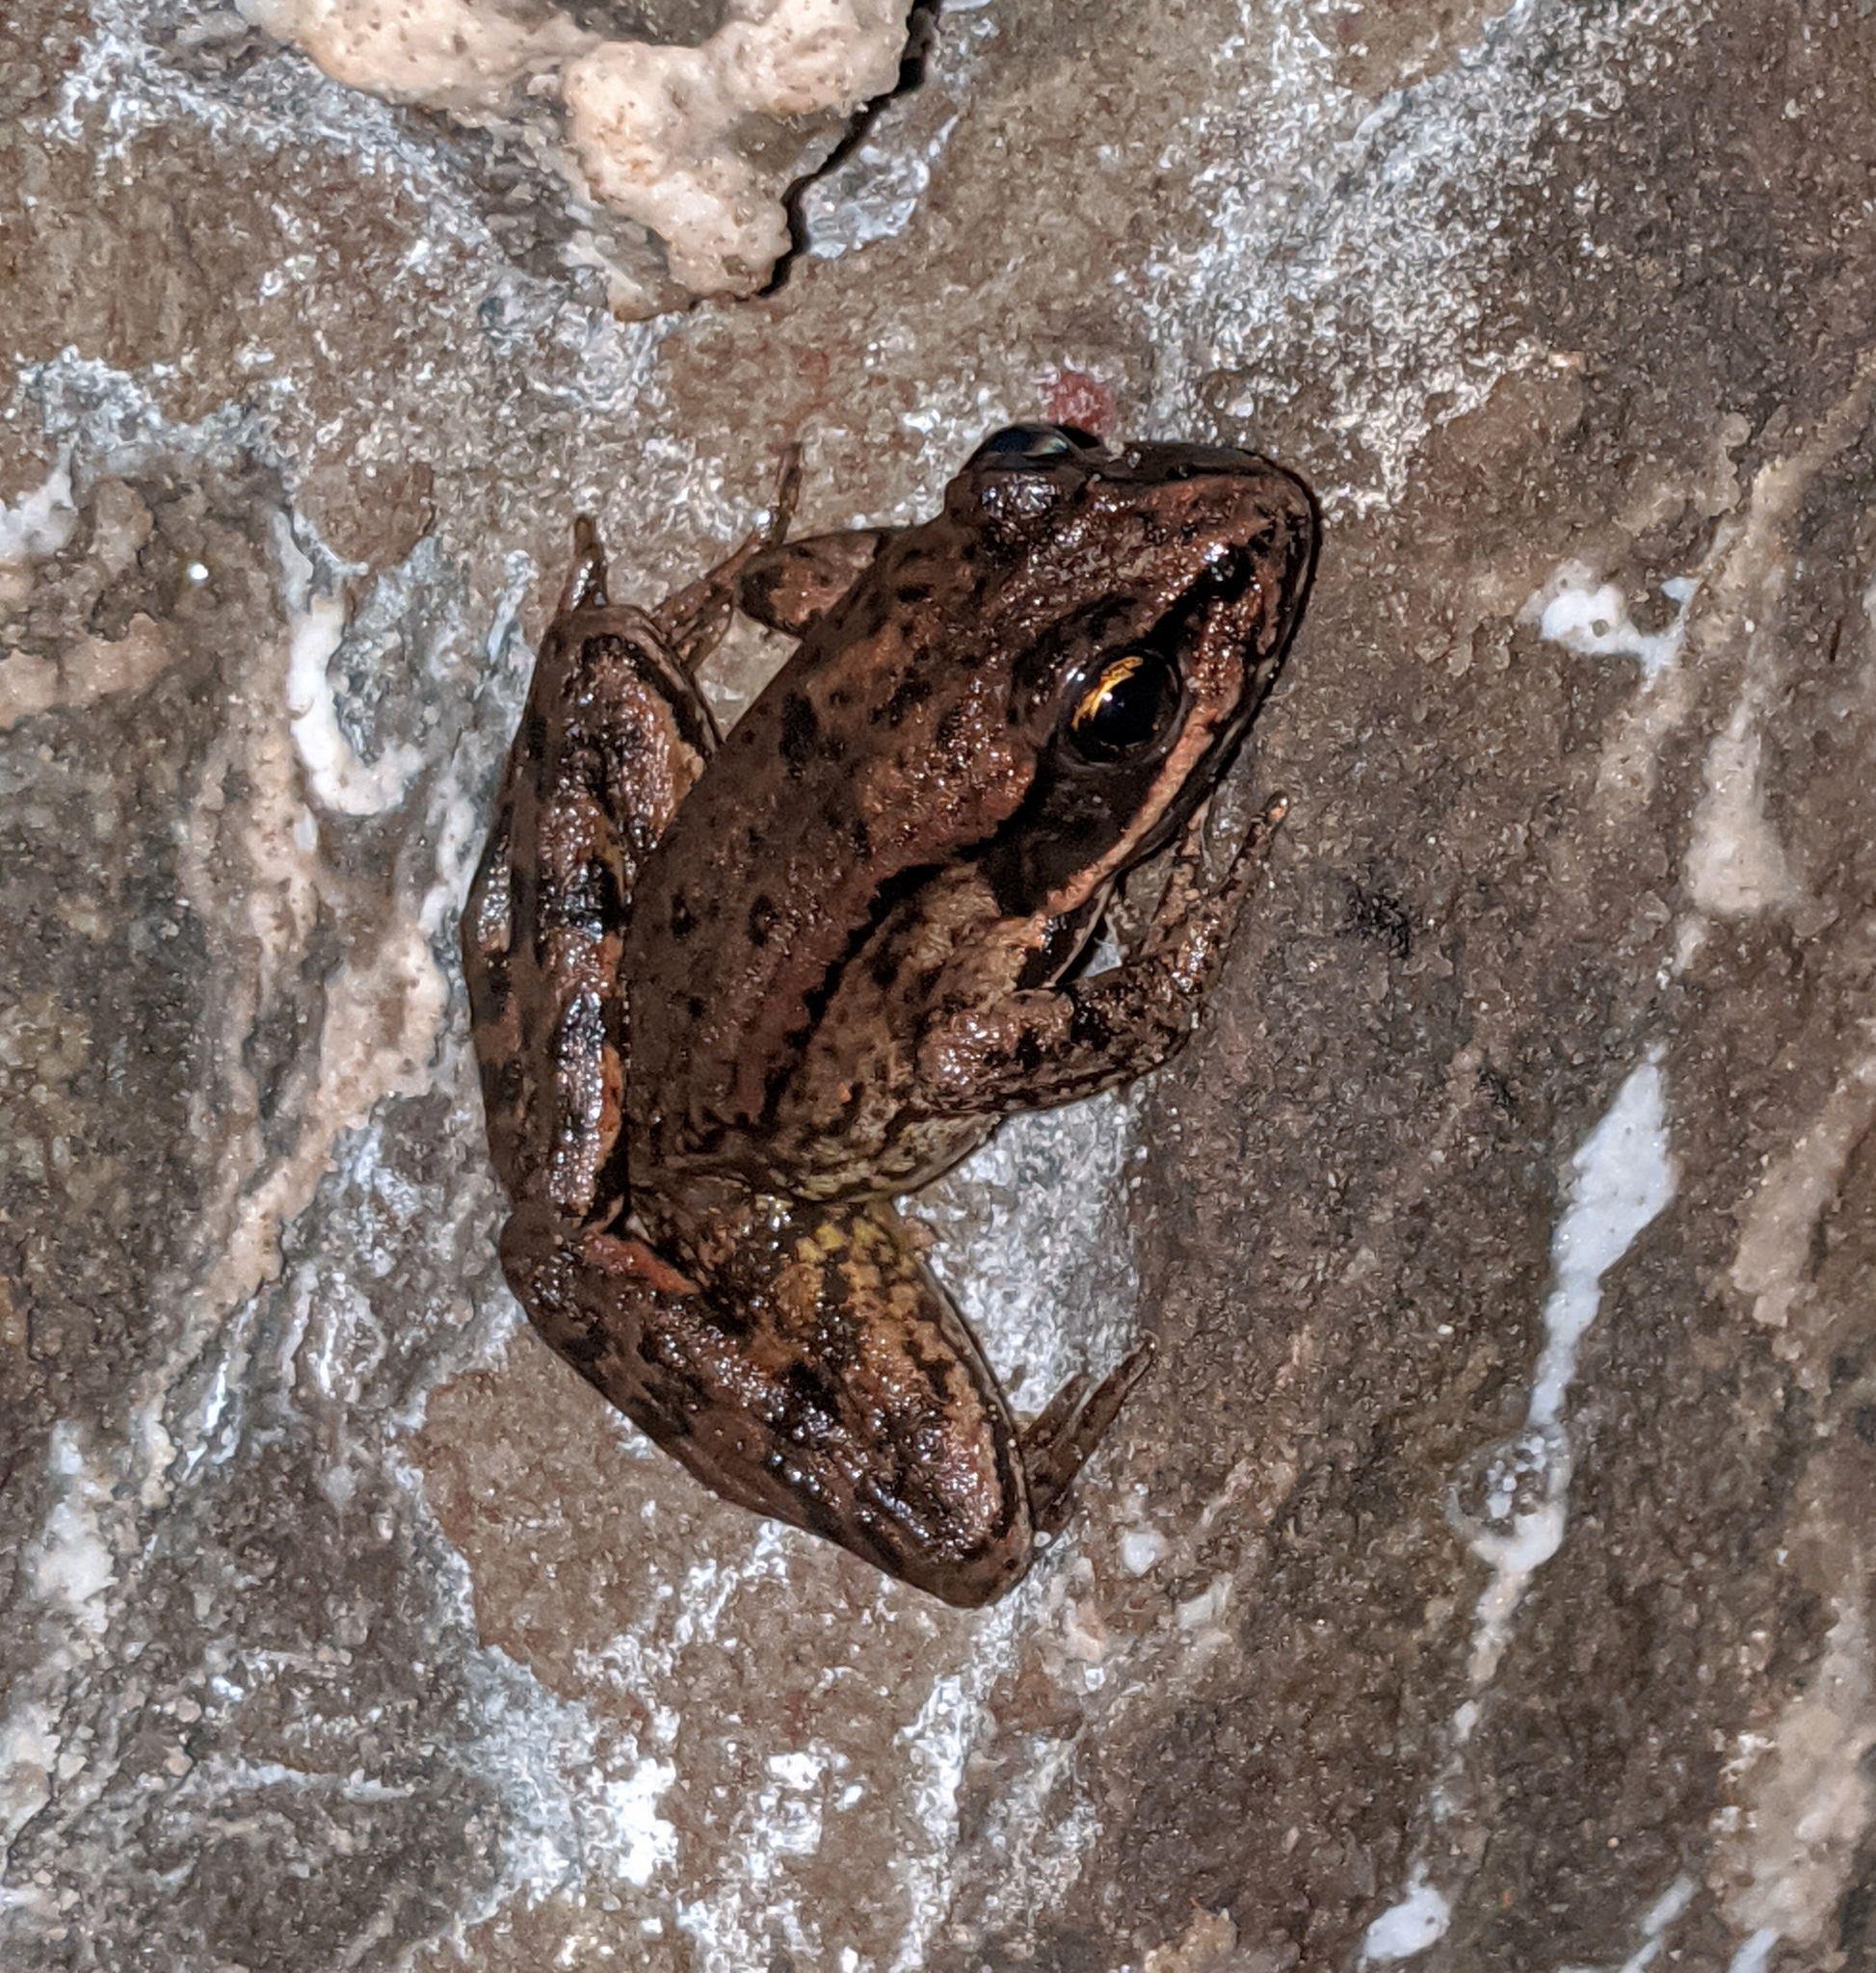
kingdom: Animalia
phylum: Chordata
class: Amphibia
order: Anura
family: Ranidae
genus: Rana
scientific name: Rana aurora
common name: Red-legged frog
